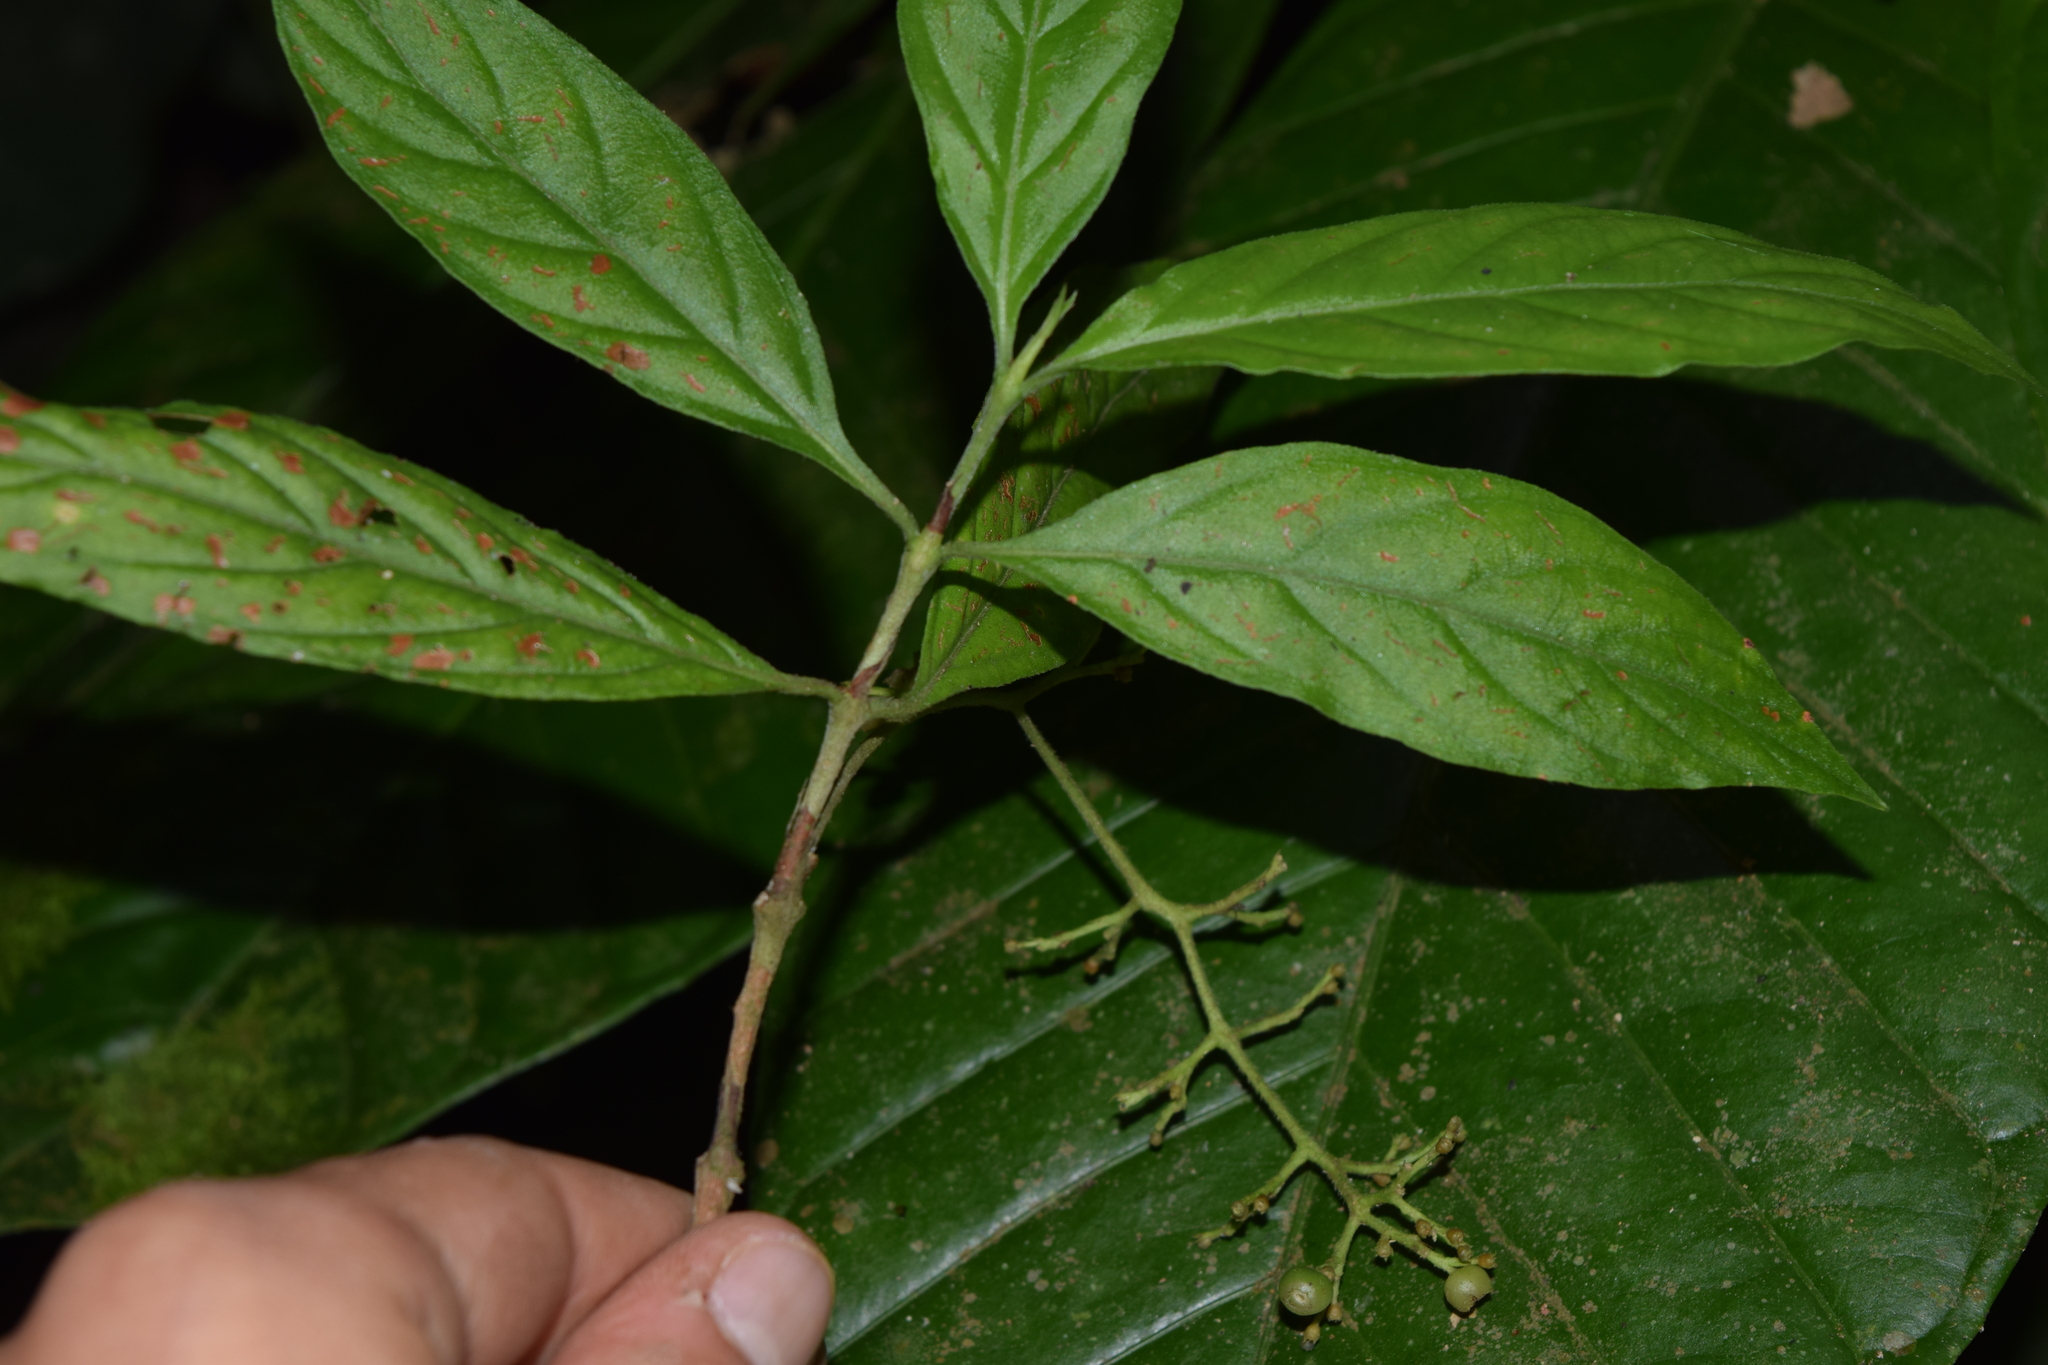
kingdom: Plantae
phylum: Tracheophyta
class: Magnoliopsida
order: Gentianales
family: Rubiaceae
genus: Bertiera
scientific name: Bertiera procumbens
